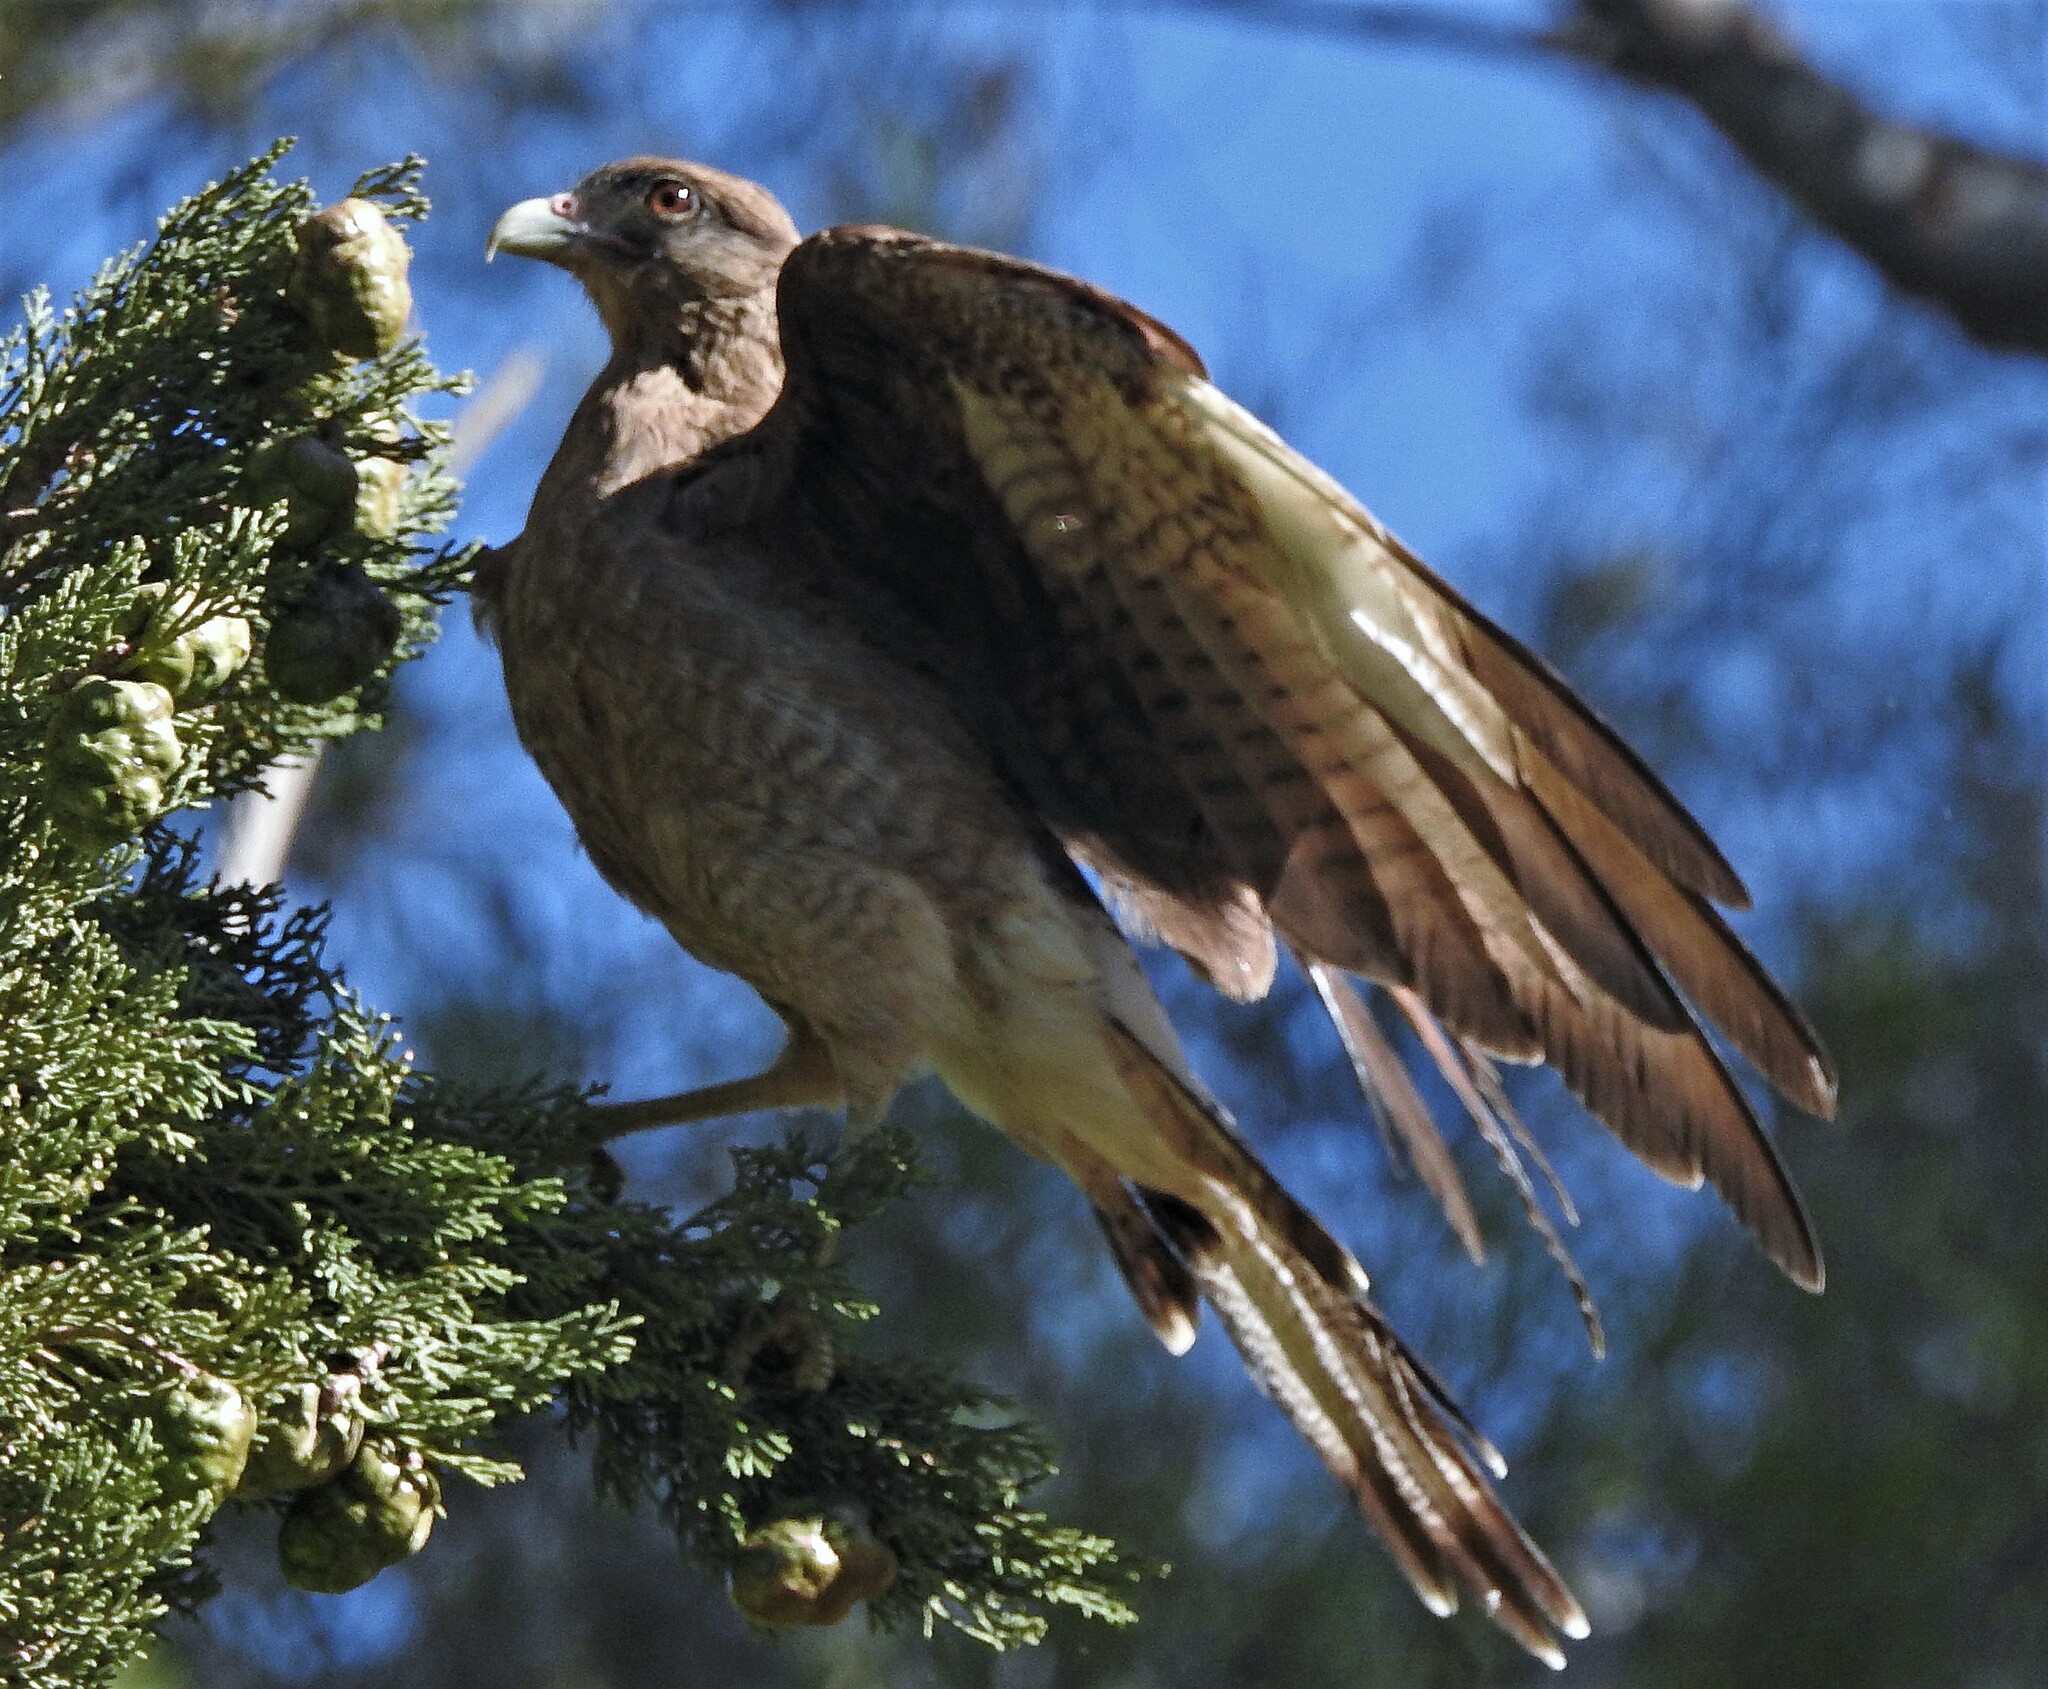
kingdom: Animalia
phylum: Chordata
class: Aves
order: Falconiformes
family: Falconidae
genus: Daptrius
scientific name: Daptrius
